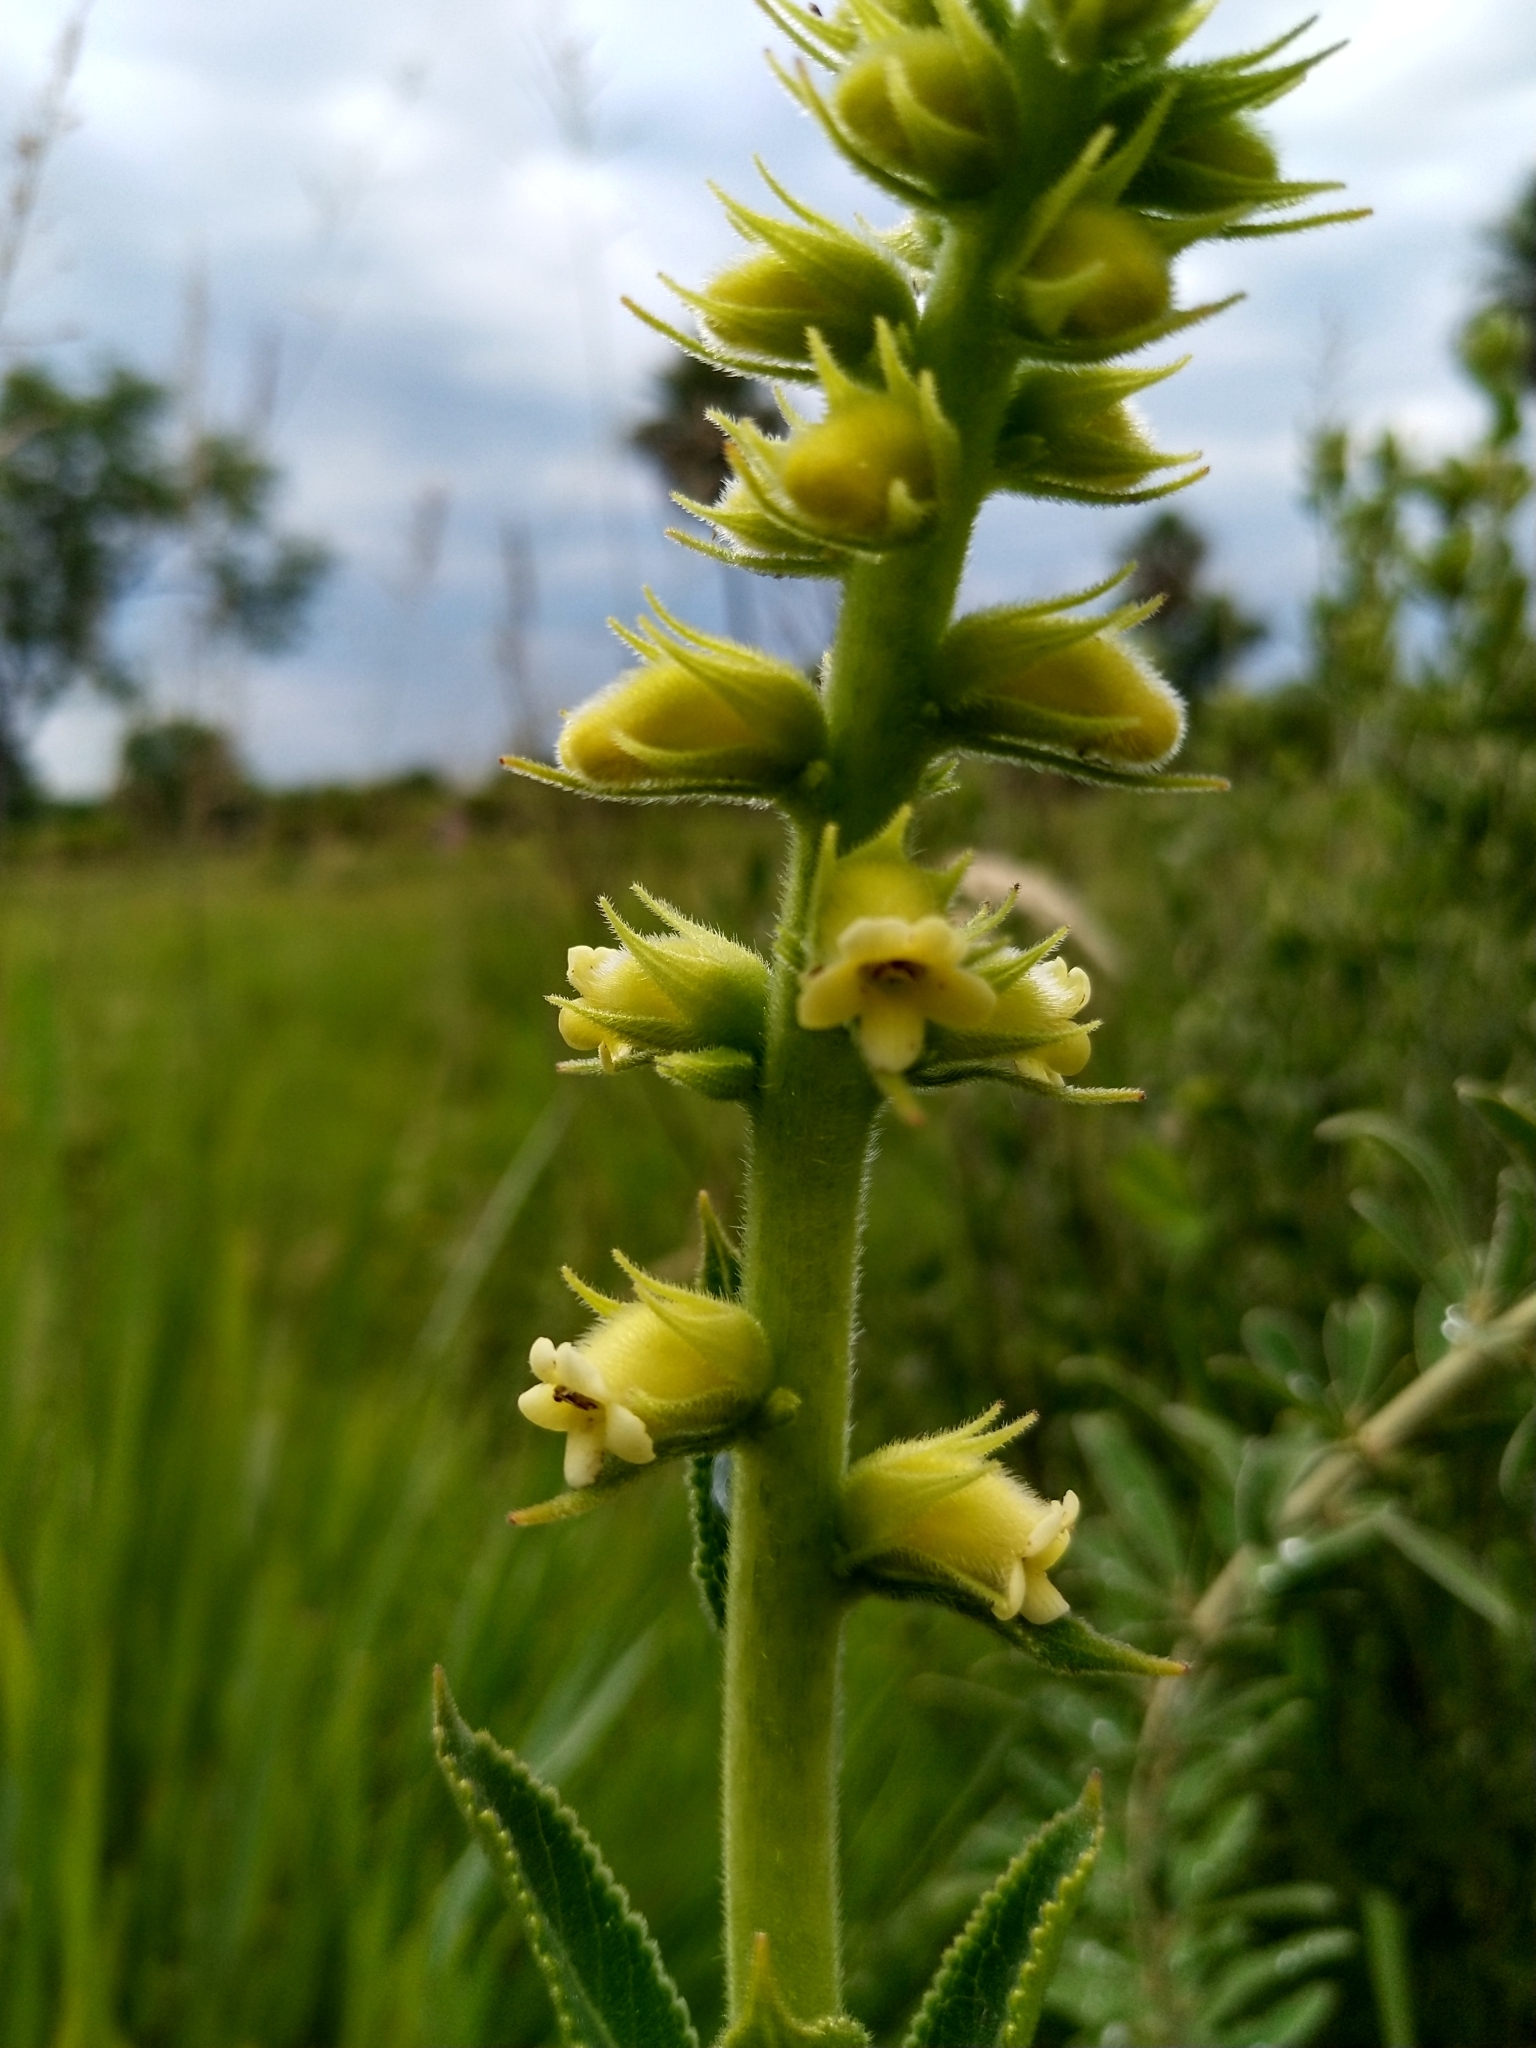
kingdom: Plantae
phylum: Tracheophyta
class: Magnoliopsida
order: Lamiales
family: Gesneriaceae
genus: Sinningia
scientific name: Sinningia lutea
